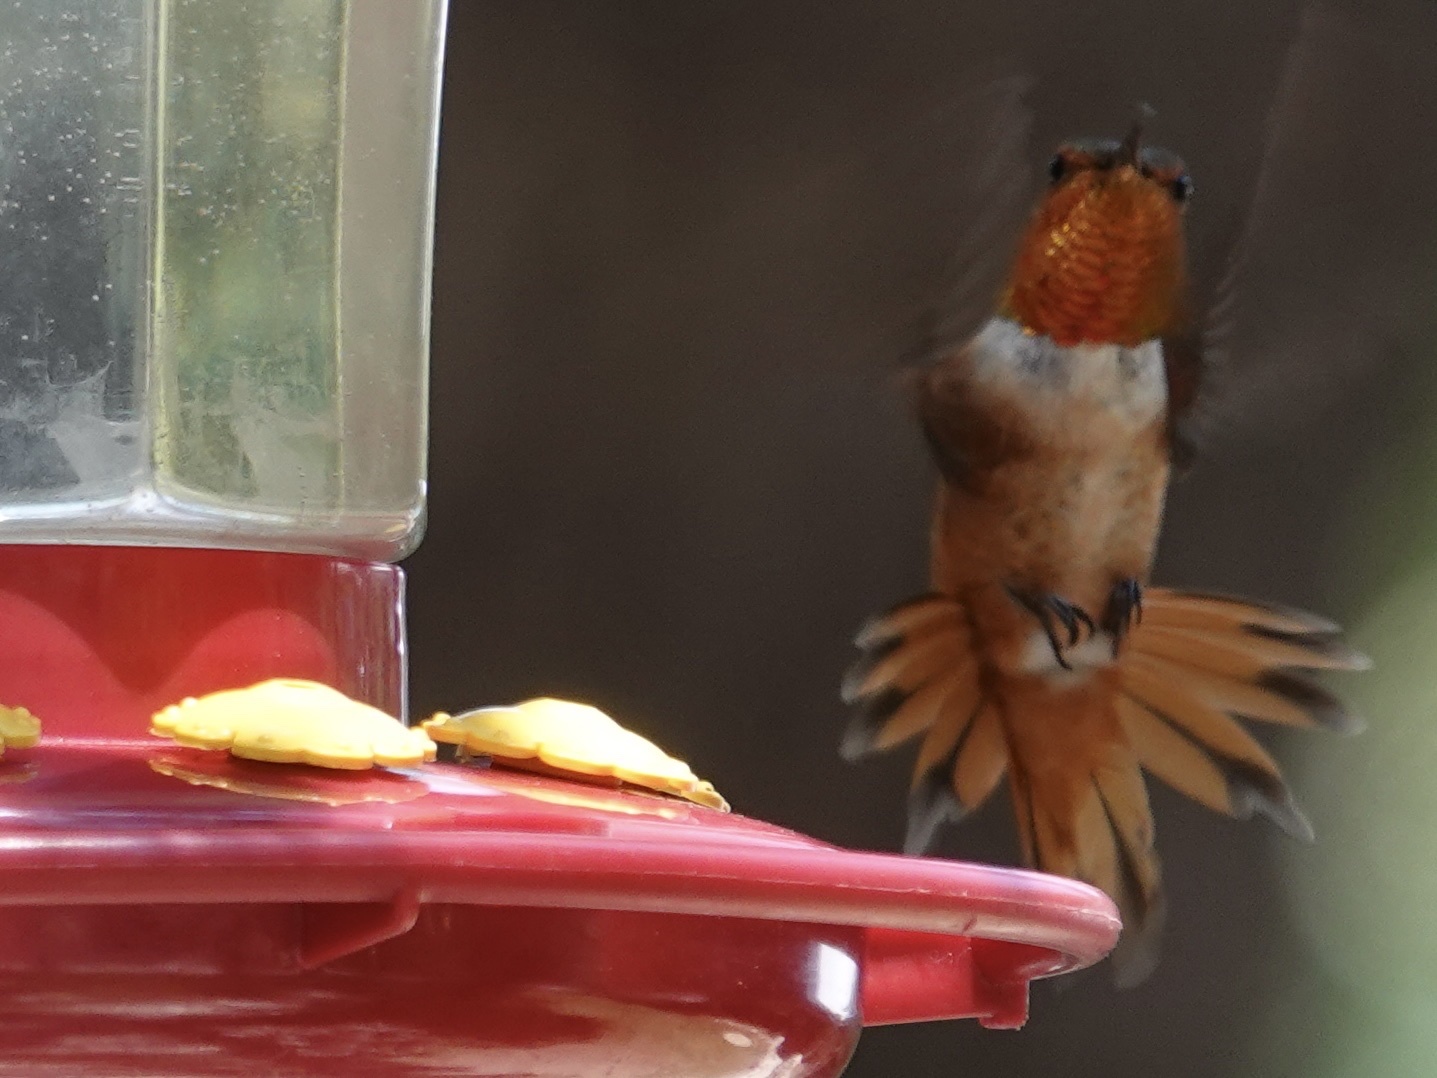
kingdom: Animalia
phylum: Chordata
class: Aves
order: Apodiformes
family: Trochilidae
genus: Selasphorus
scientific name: Selasphorus rufus
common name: Rufous hummingbird
